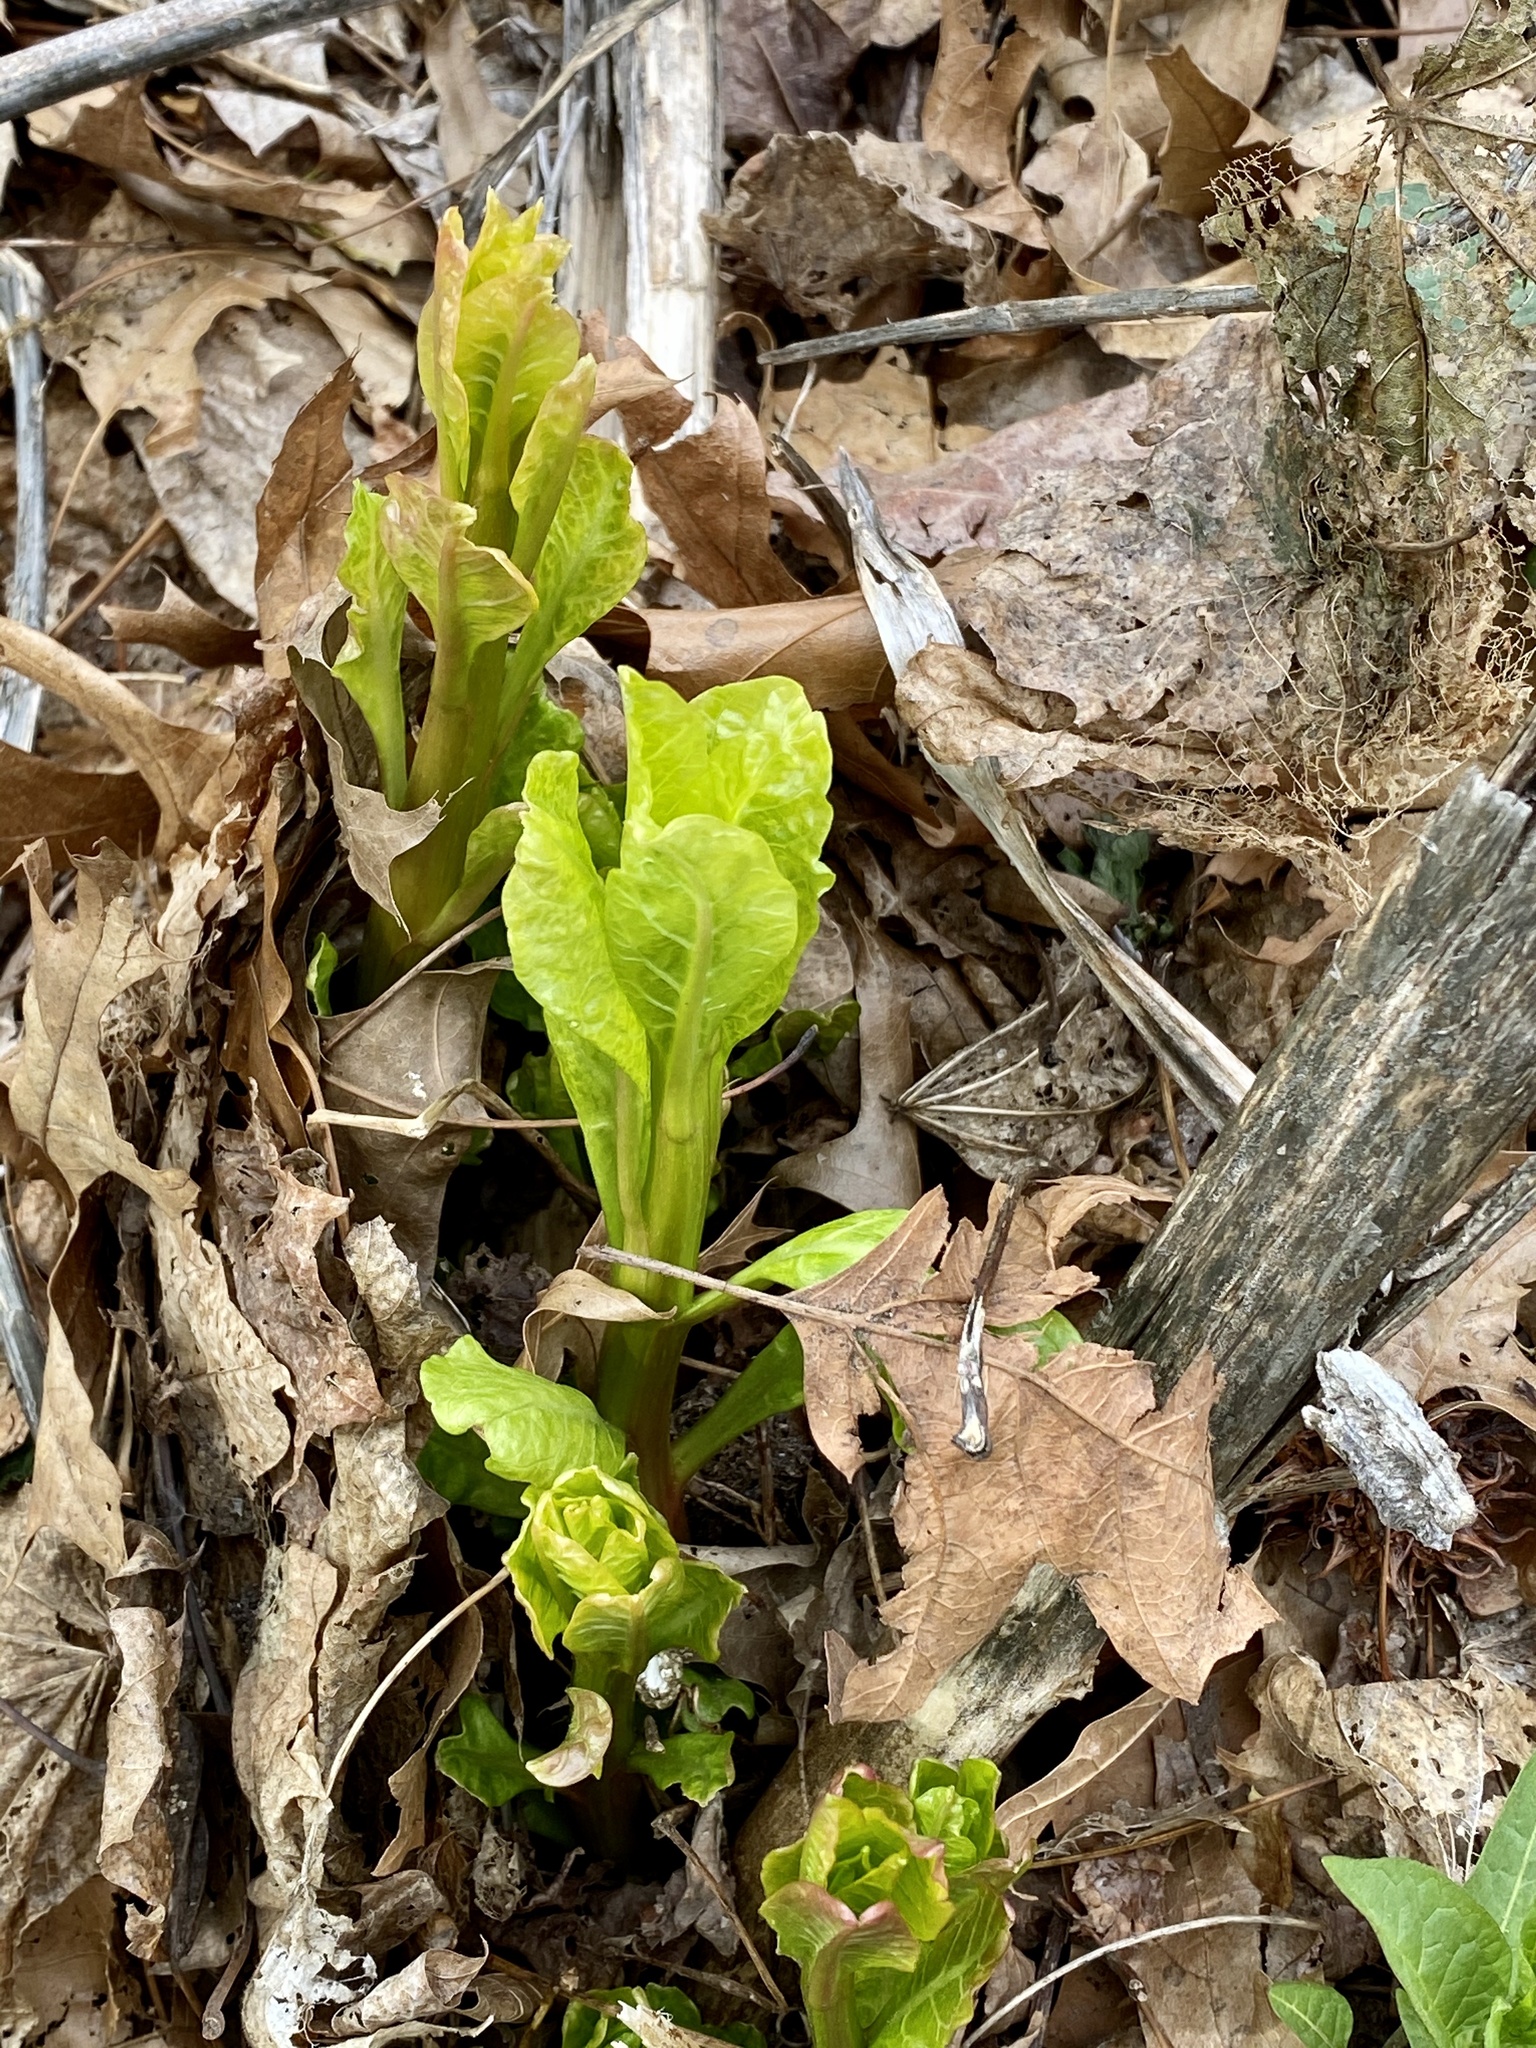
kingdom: Plantae
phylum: Tracheophyta
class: Magnoliopsida
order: Caryophyllales
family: Phytolaccaceae
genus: Phytolacca
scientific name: Phytolacca americana
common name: American pokeweed
